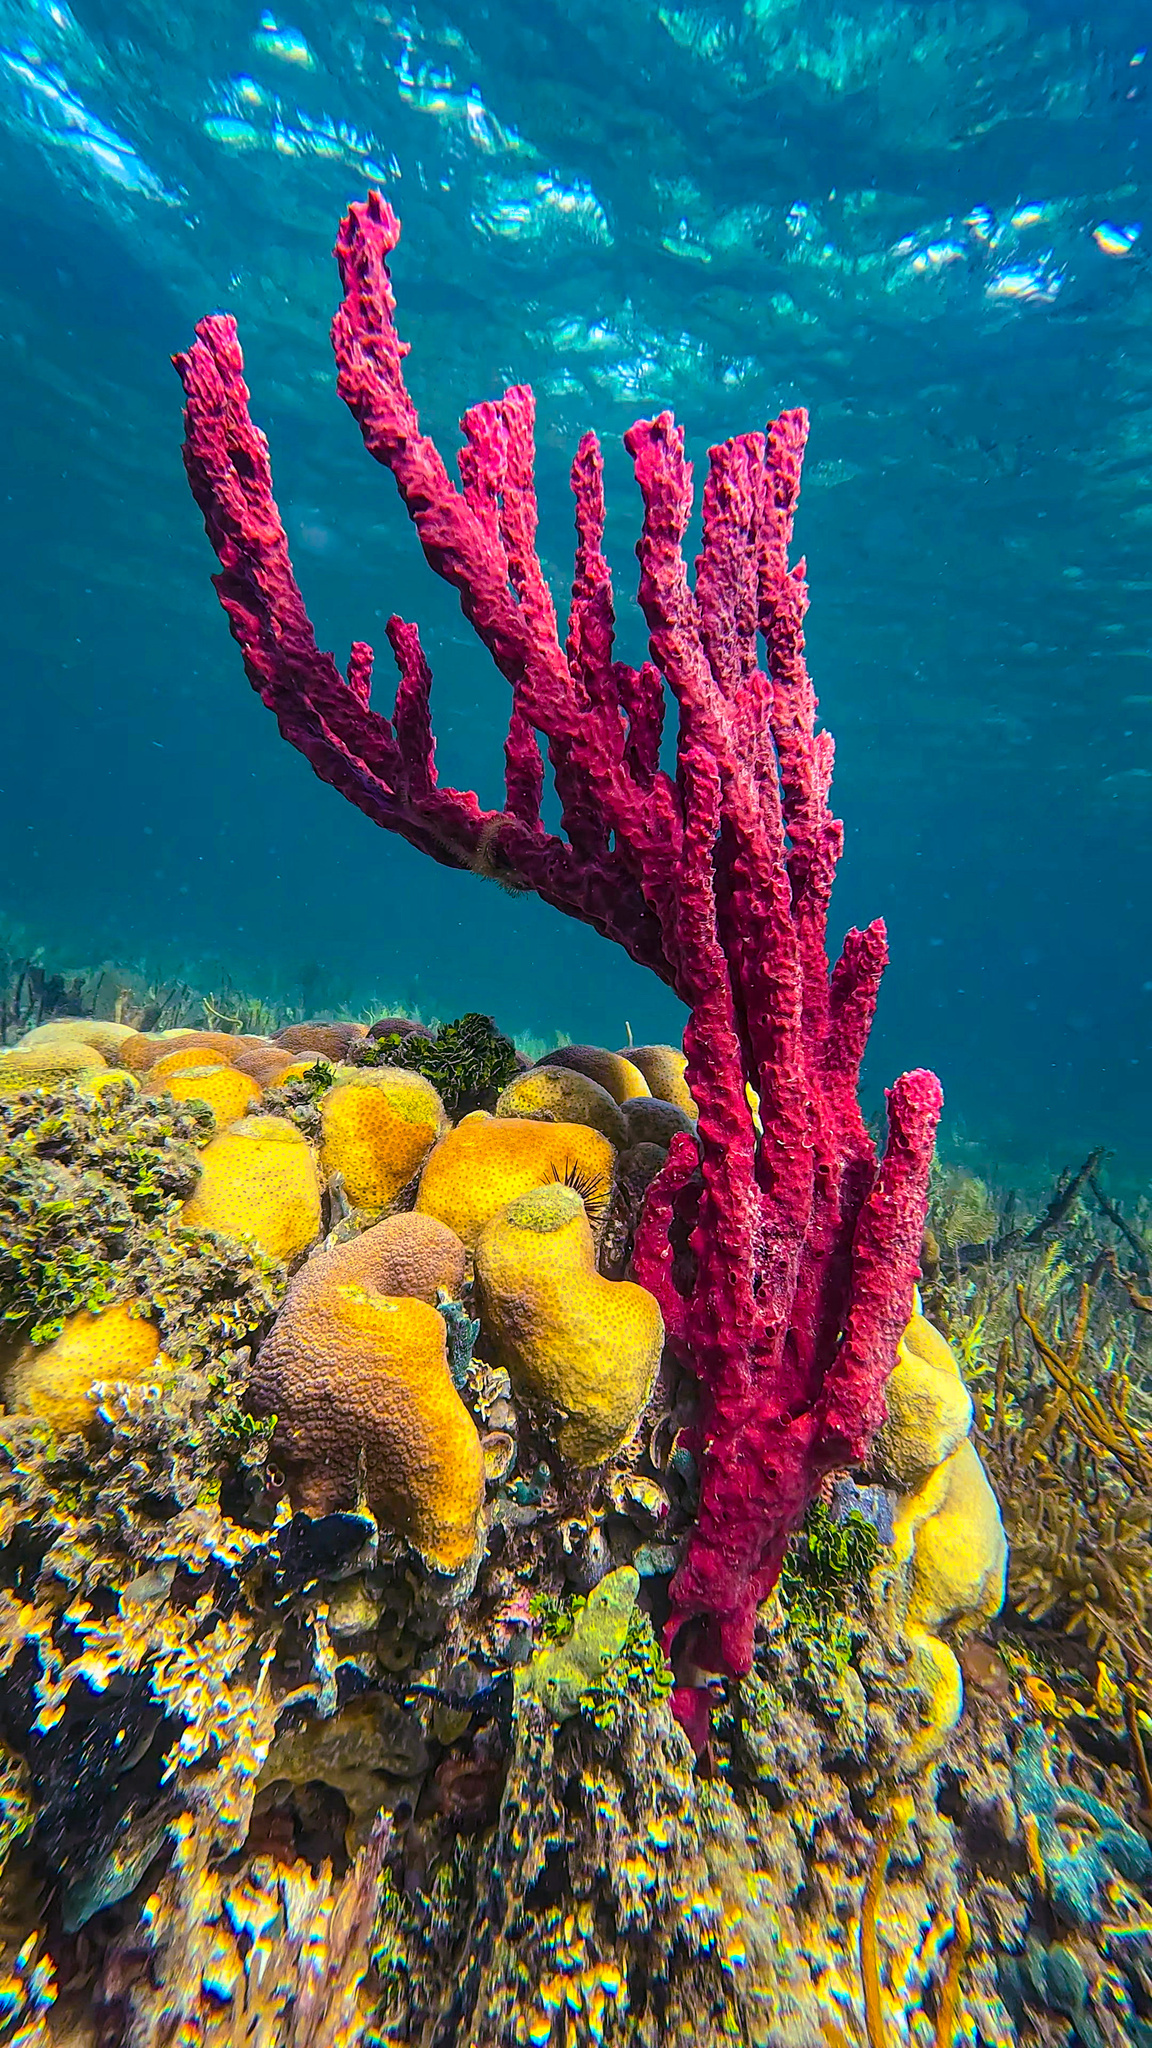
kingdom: Animalia
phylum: Porifera
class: Demospongiae
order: Haplosclerida
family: Niphatidae
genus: Amphimedon
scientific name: Amphimedon compressa
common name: Red sponge
